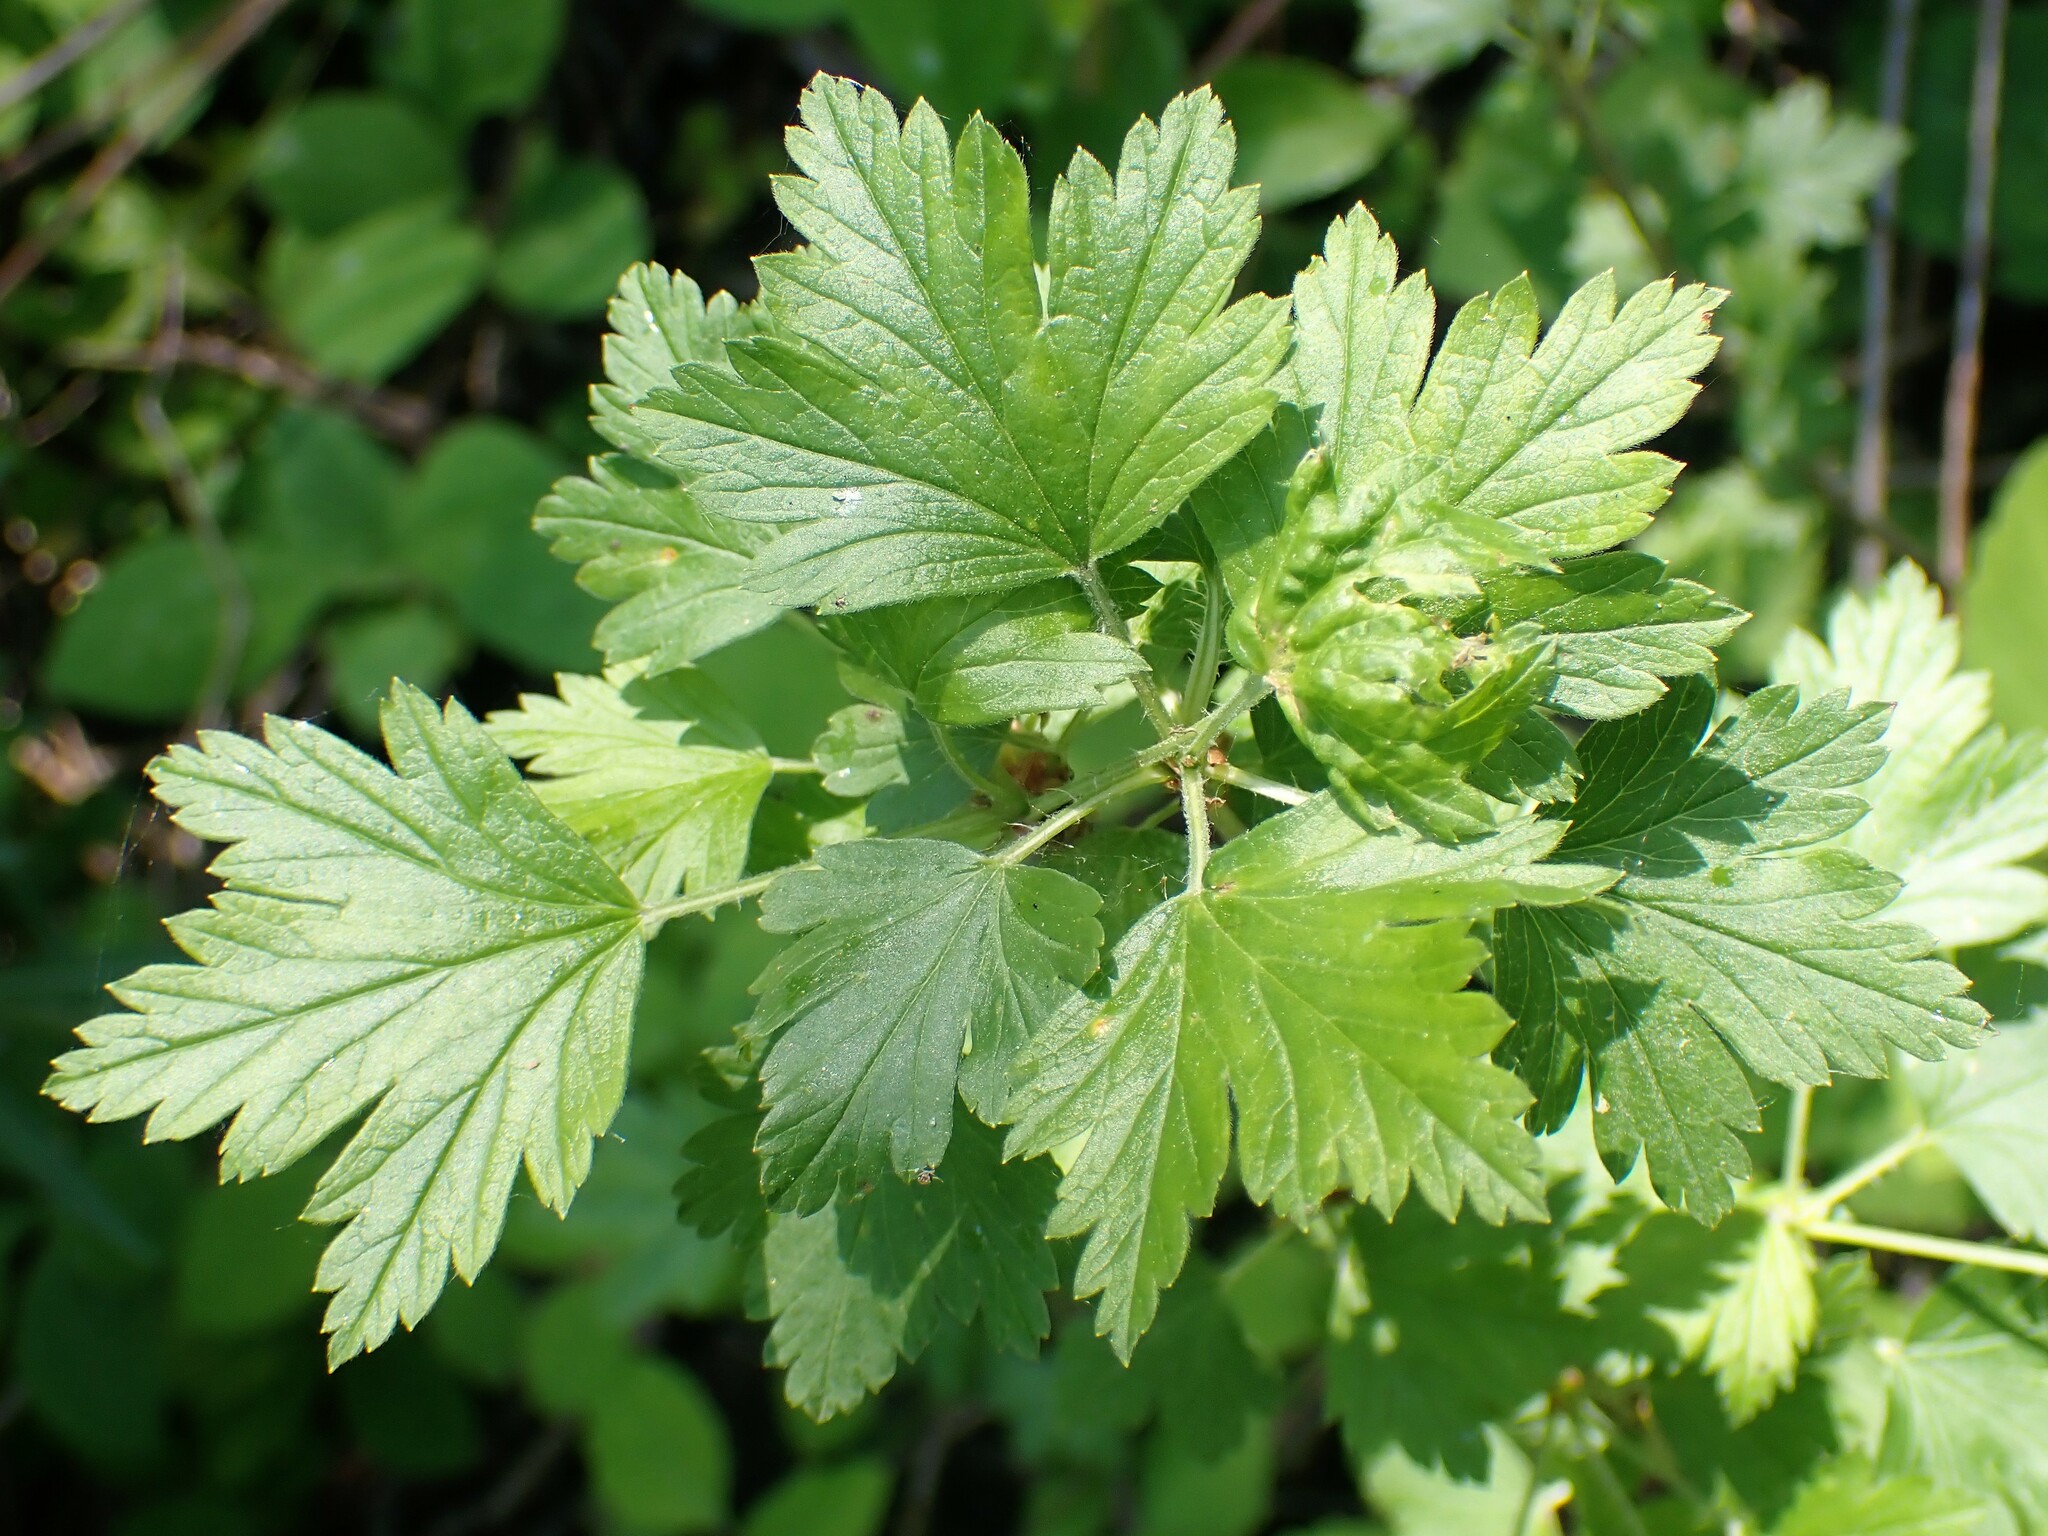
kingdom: Plantae
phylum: Tracheophyta
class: Magnoliopsida
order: Saxifragales
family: Grossulariaceae
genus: Ribes
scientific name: Ribes hirtellum
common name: Hairy gooseberry
